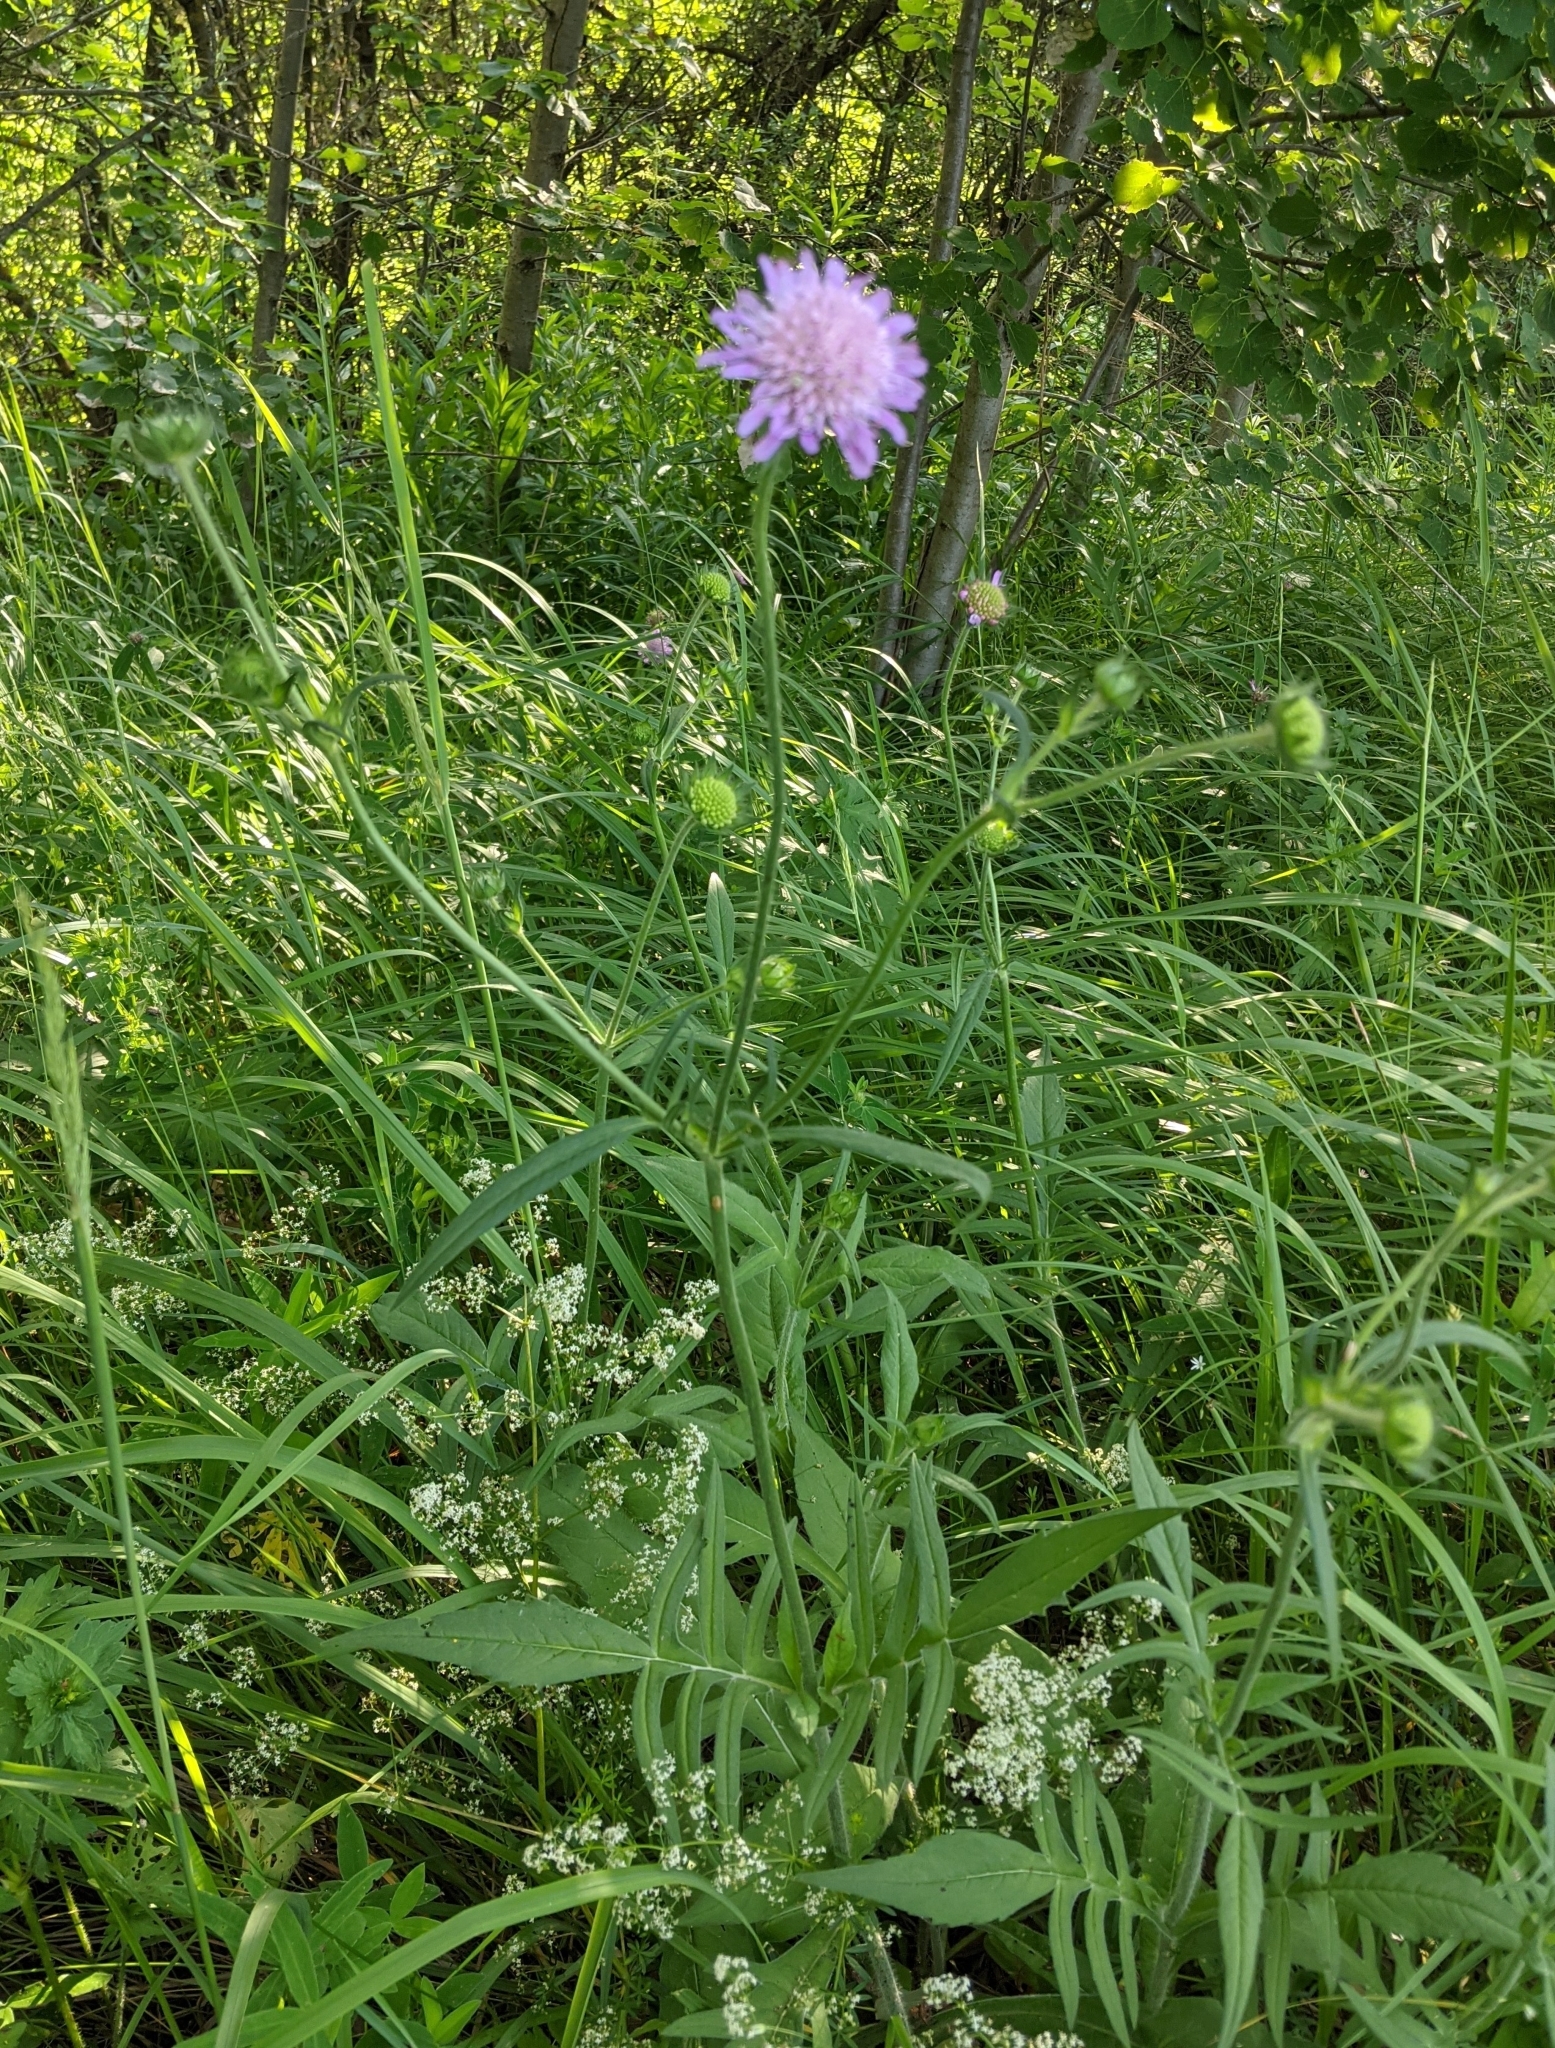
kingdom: Plantae
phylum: Tracheophyta
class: Magnoliopsida
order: Dipsacales
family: Caprifoliaceae
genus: Knautia
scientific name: Knautia arvensis
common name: Field scabiosa
